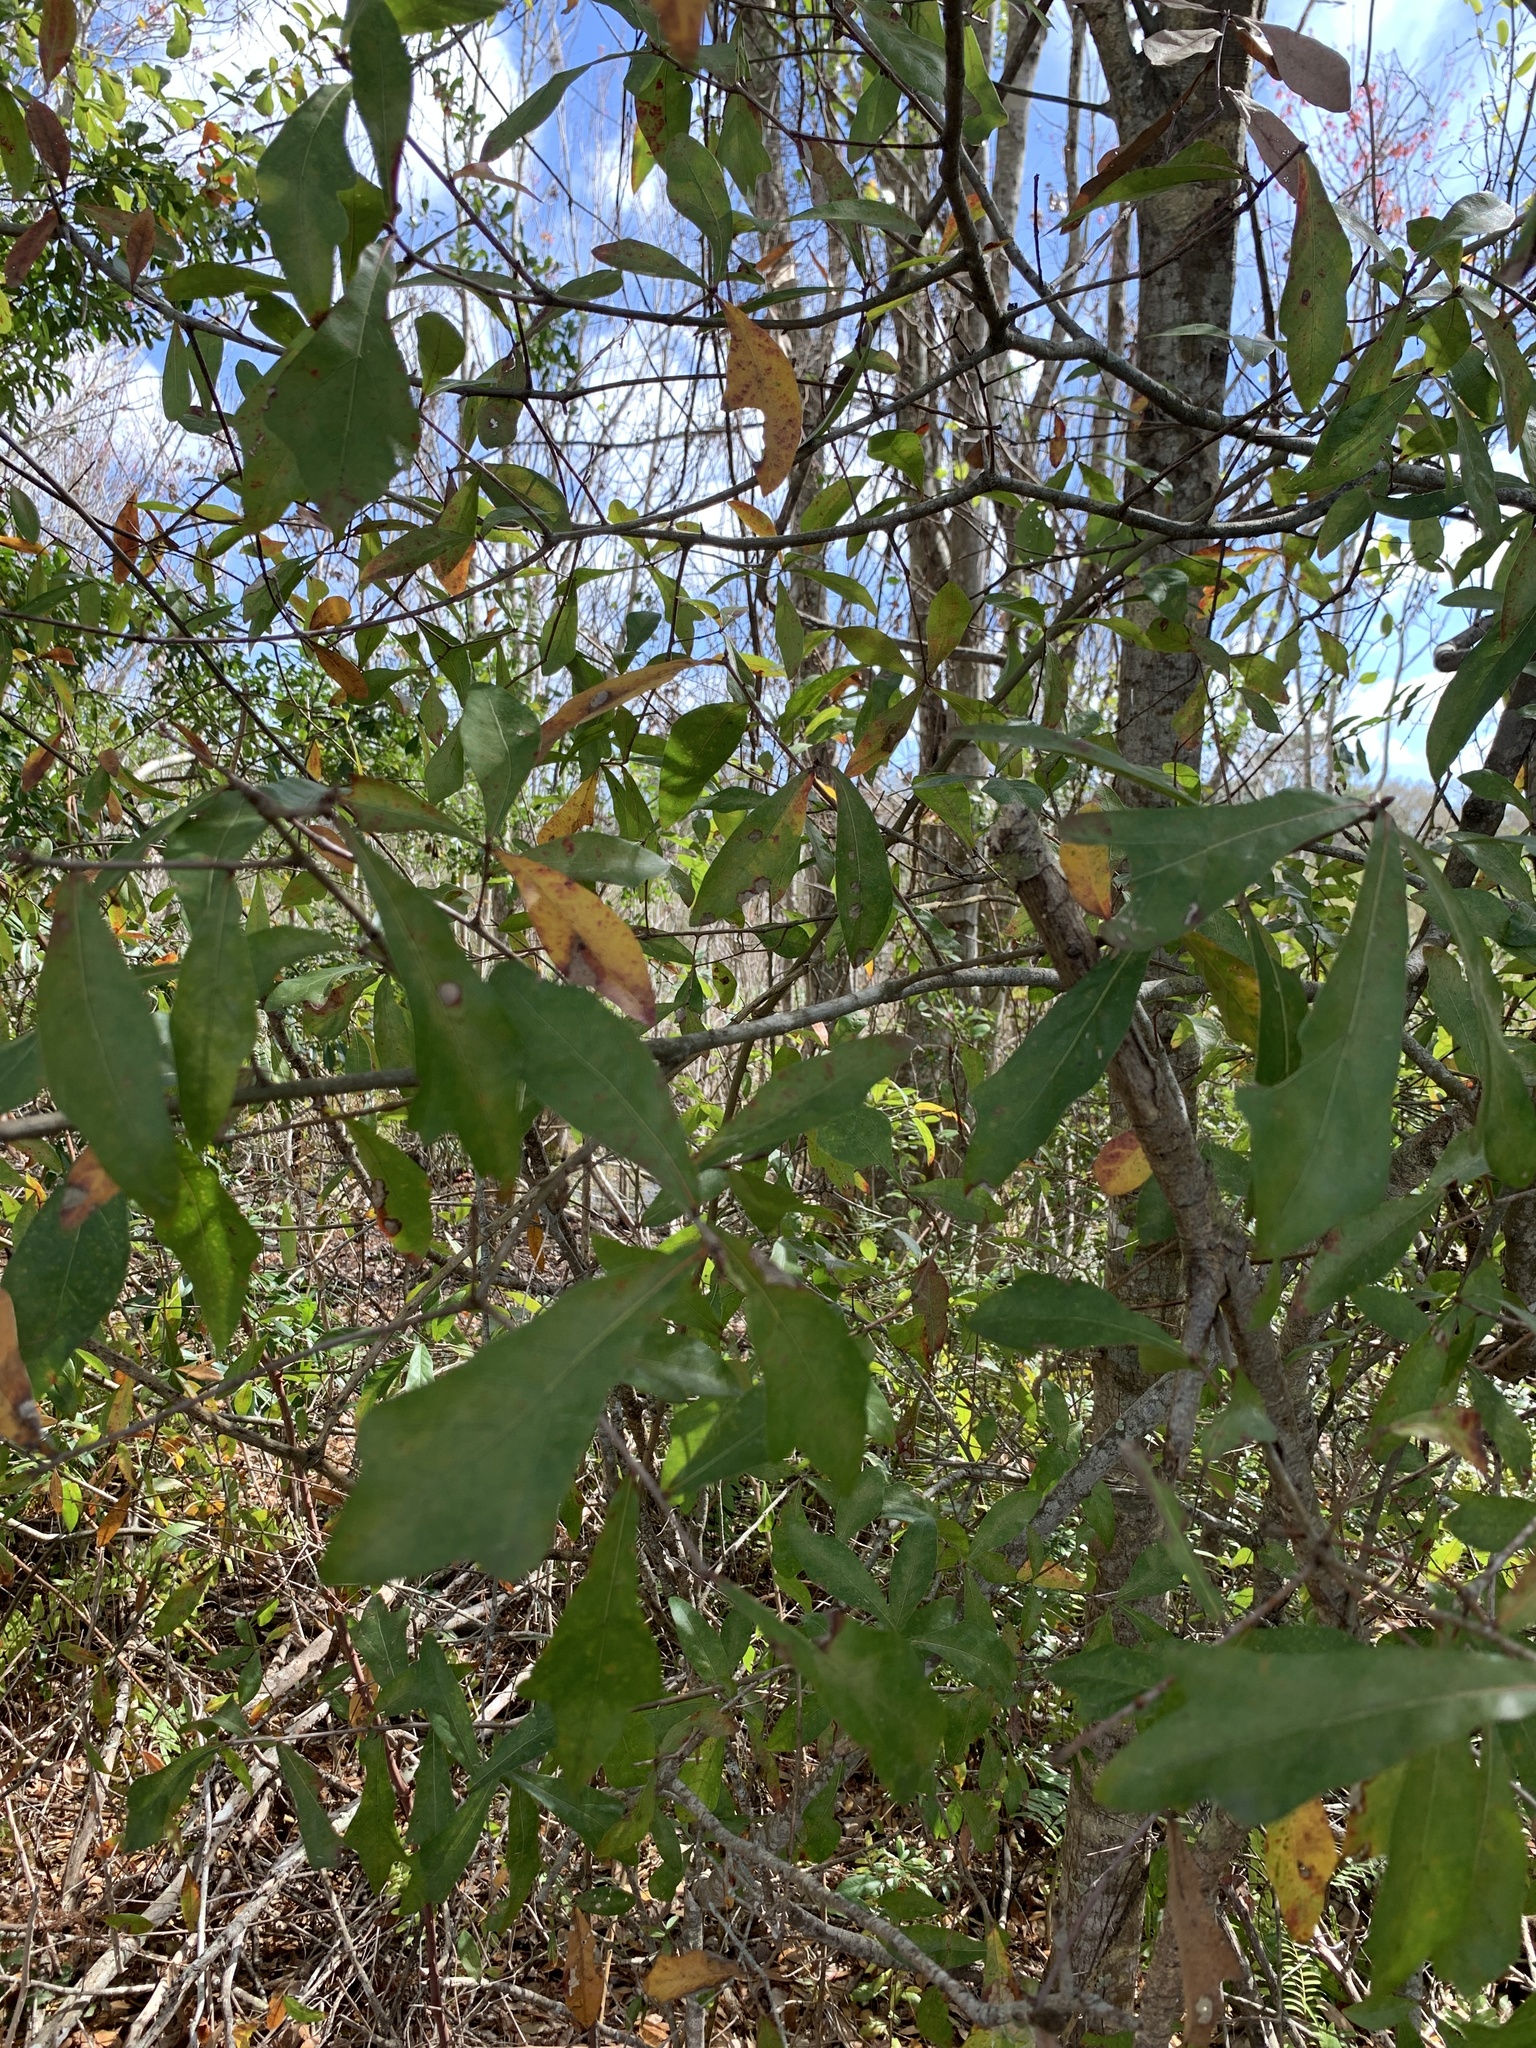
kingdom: Plantae
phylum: Tracheophyta
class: Magnoliopsida
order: Fagales
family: Fagaceae
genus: Quercus
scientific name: Quercus laurifolia
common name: Swamp laurel oak
